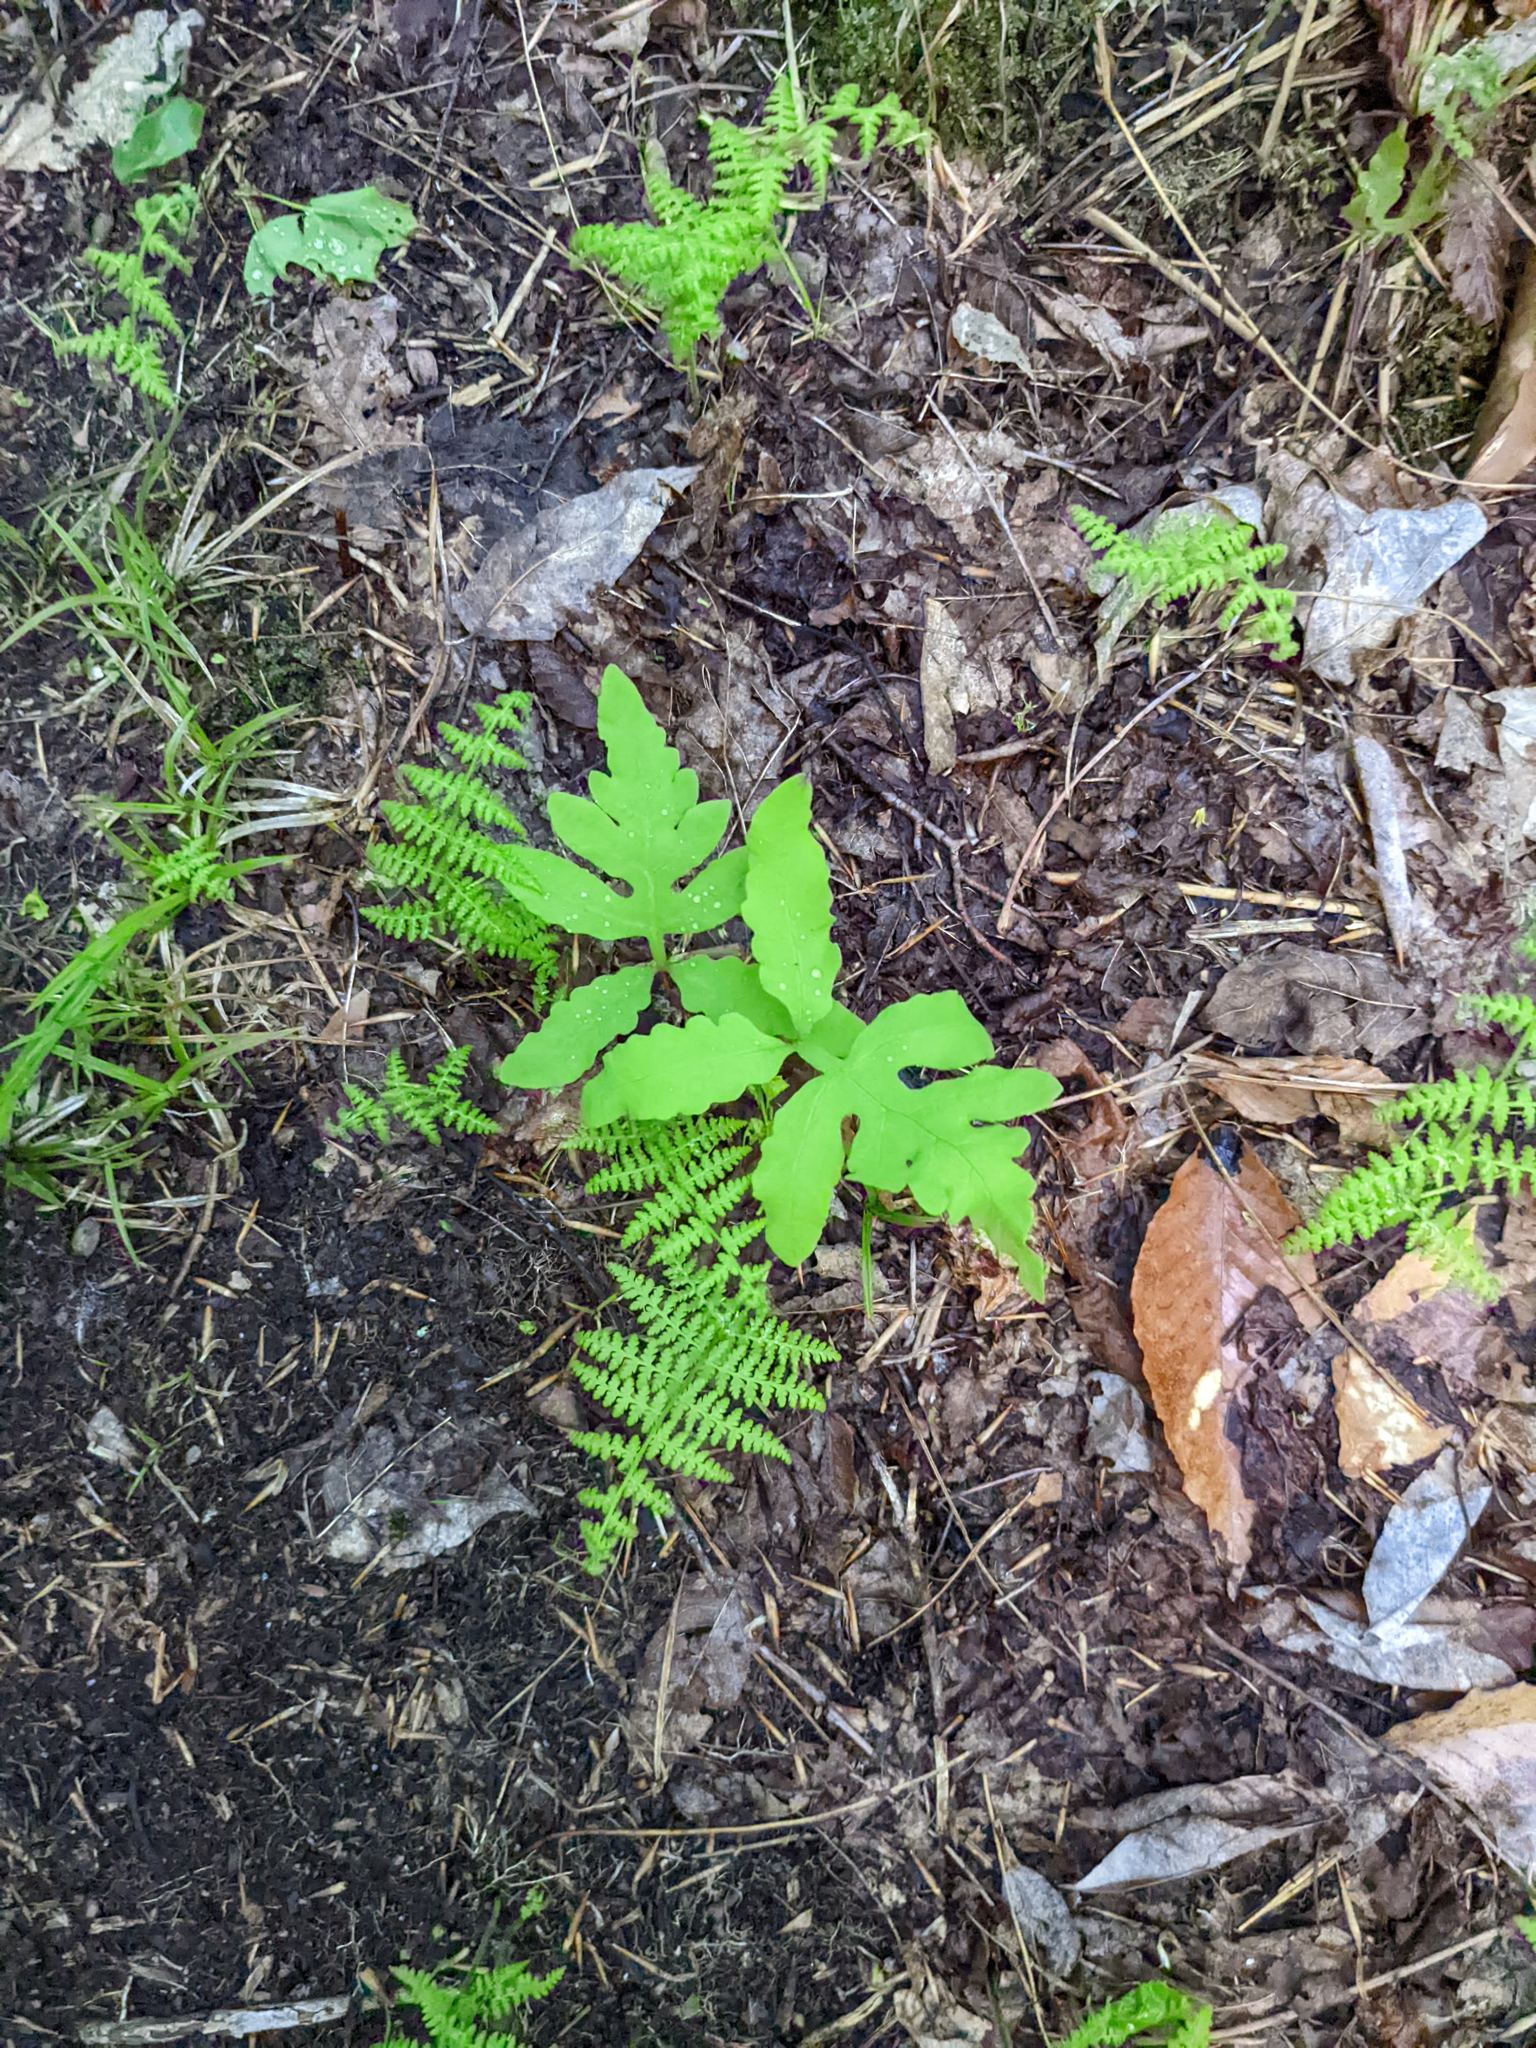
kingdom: Plantae
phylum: Tracheophyta
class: Polypodiopsida
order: Polypodiales
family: Onocleaceae
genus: Onoclea
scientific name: Onoclea sensibilis
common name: Sensitive fern
